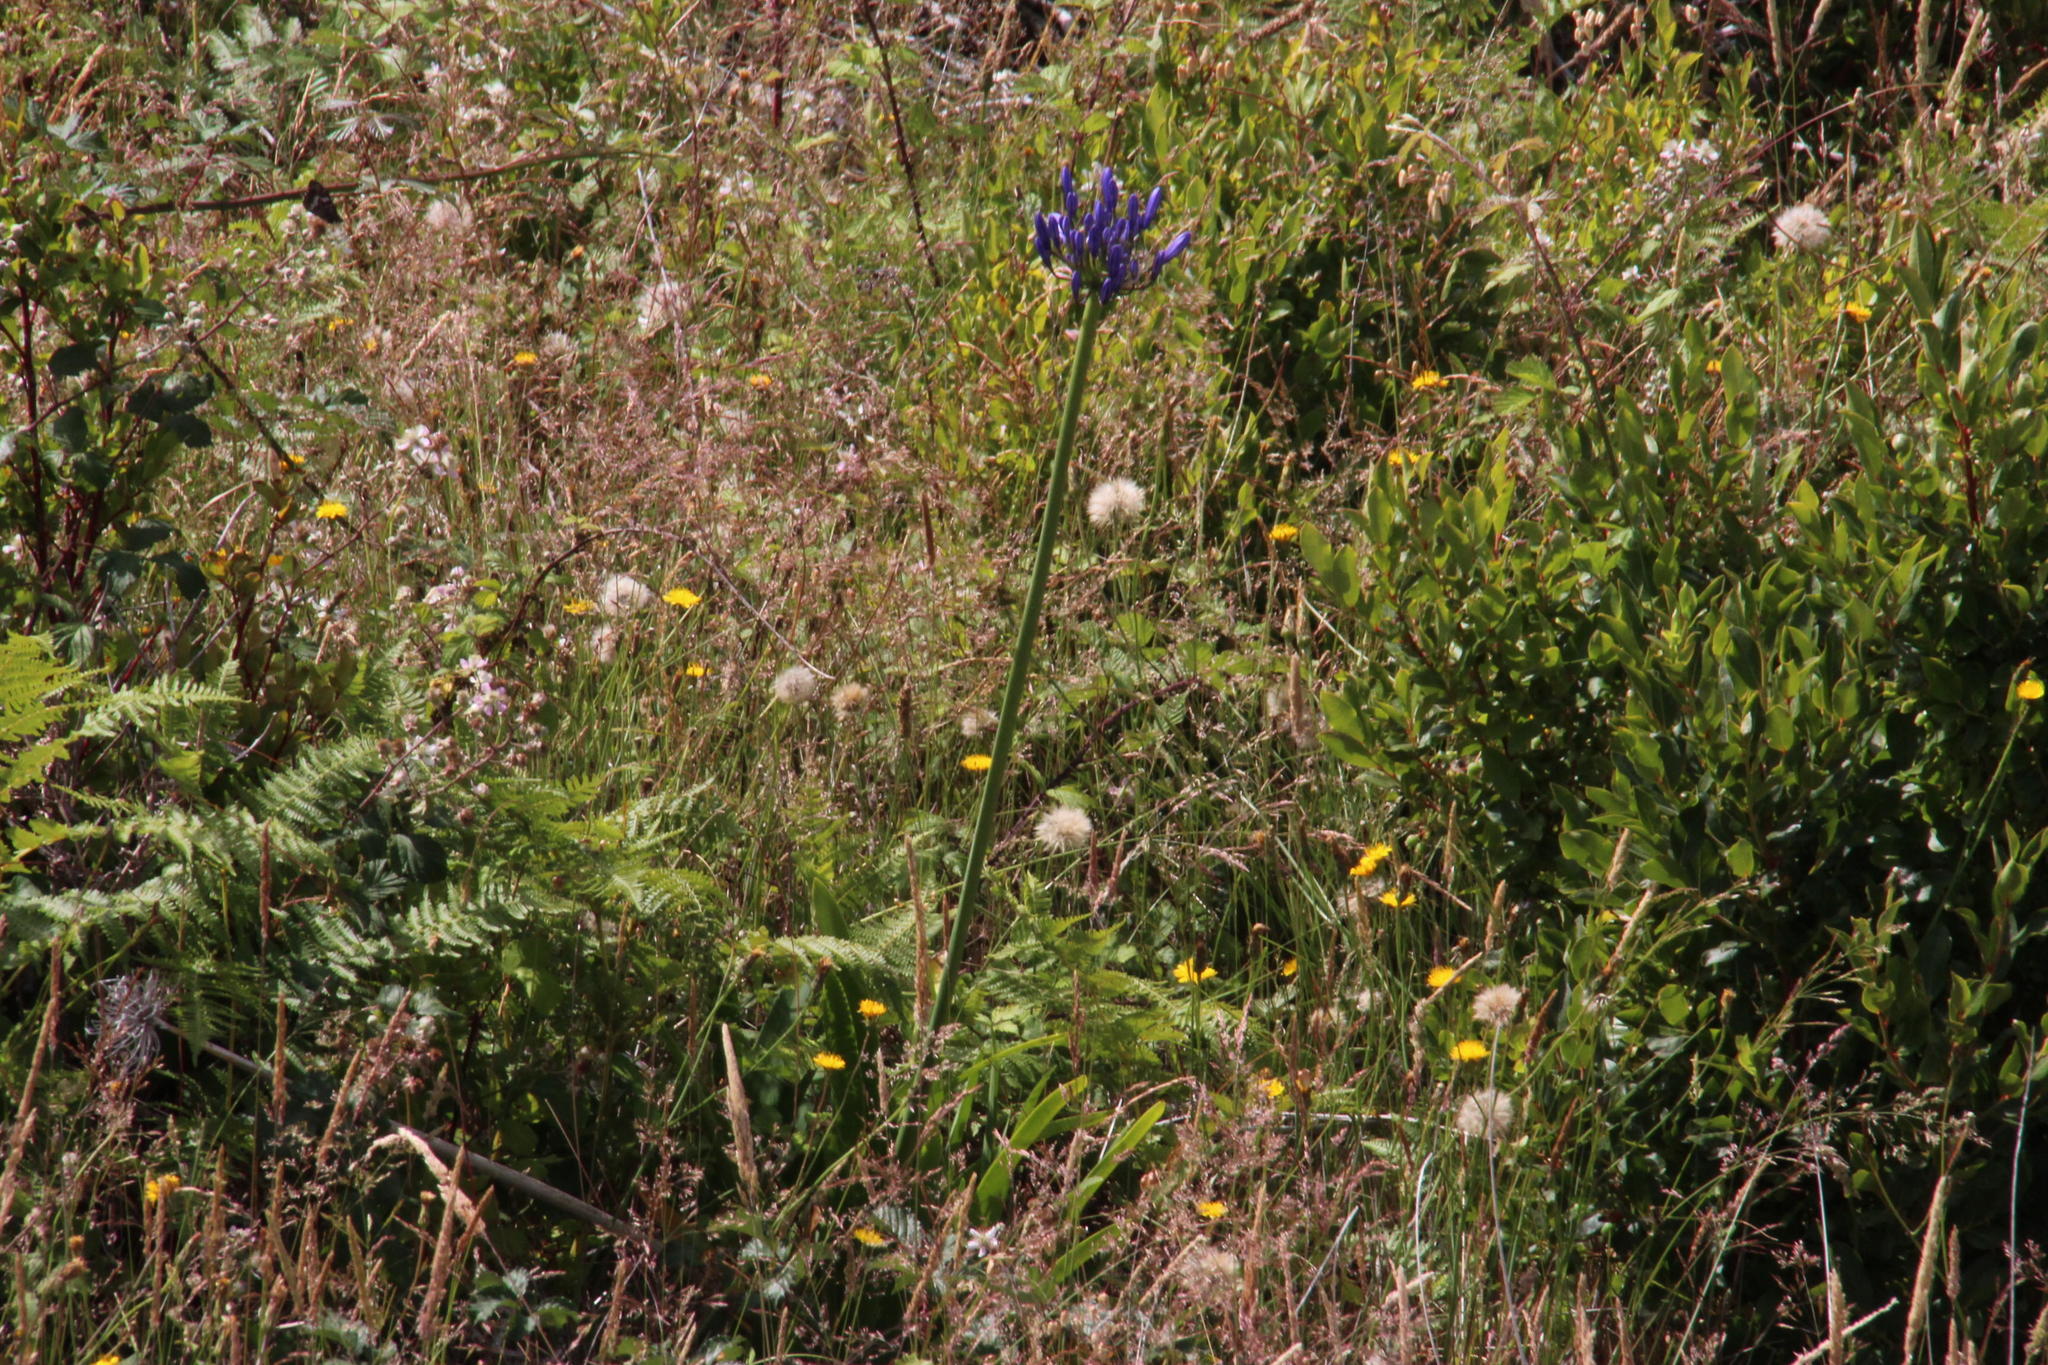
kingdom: Plantae
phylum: Tracheophyta
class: Liliopsida
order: Asparagales
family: Amaryllidaceae
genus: Agapanthus
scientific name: Agapanthus praecox
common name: African-lily
